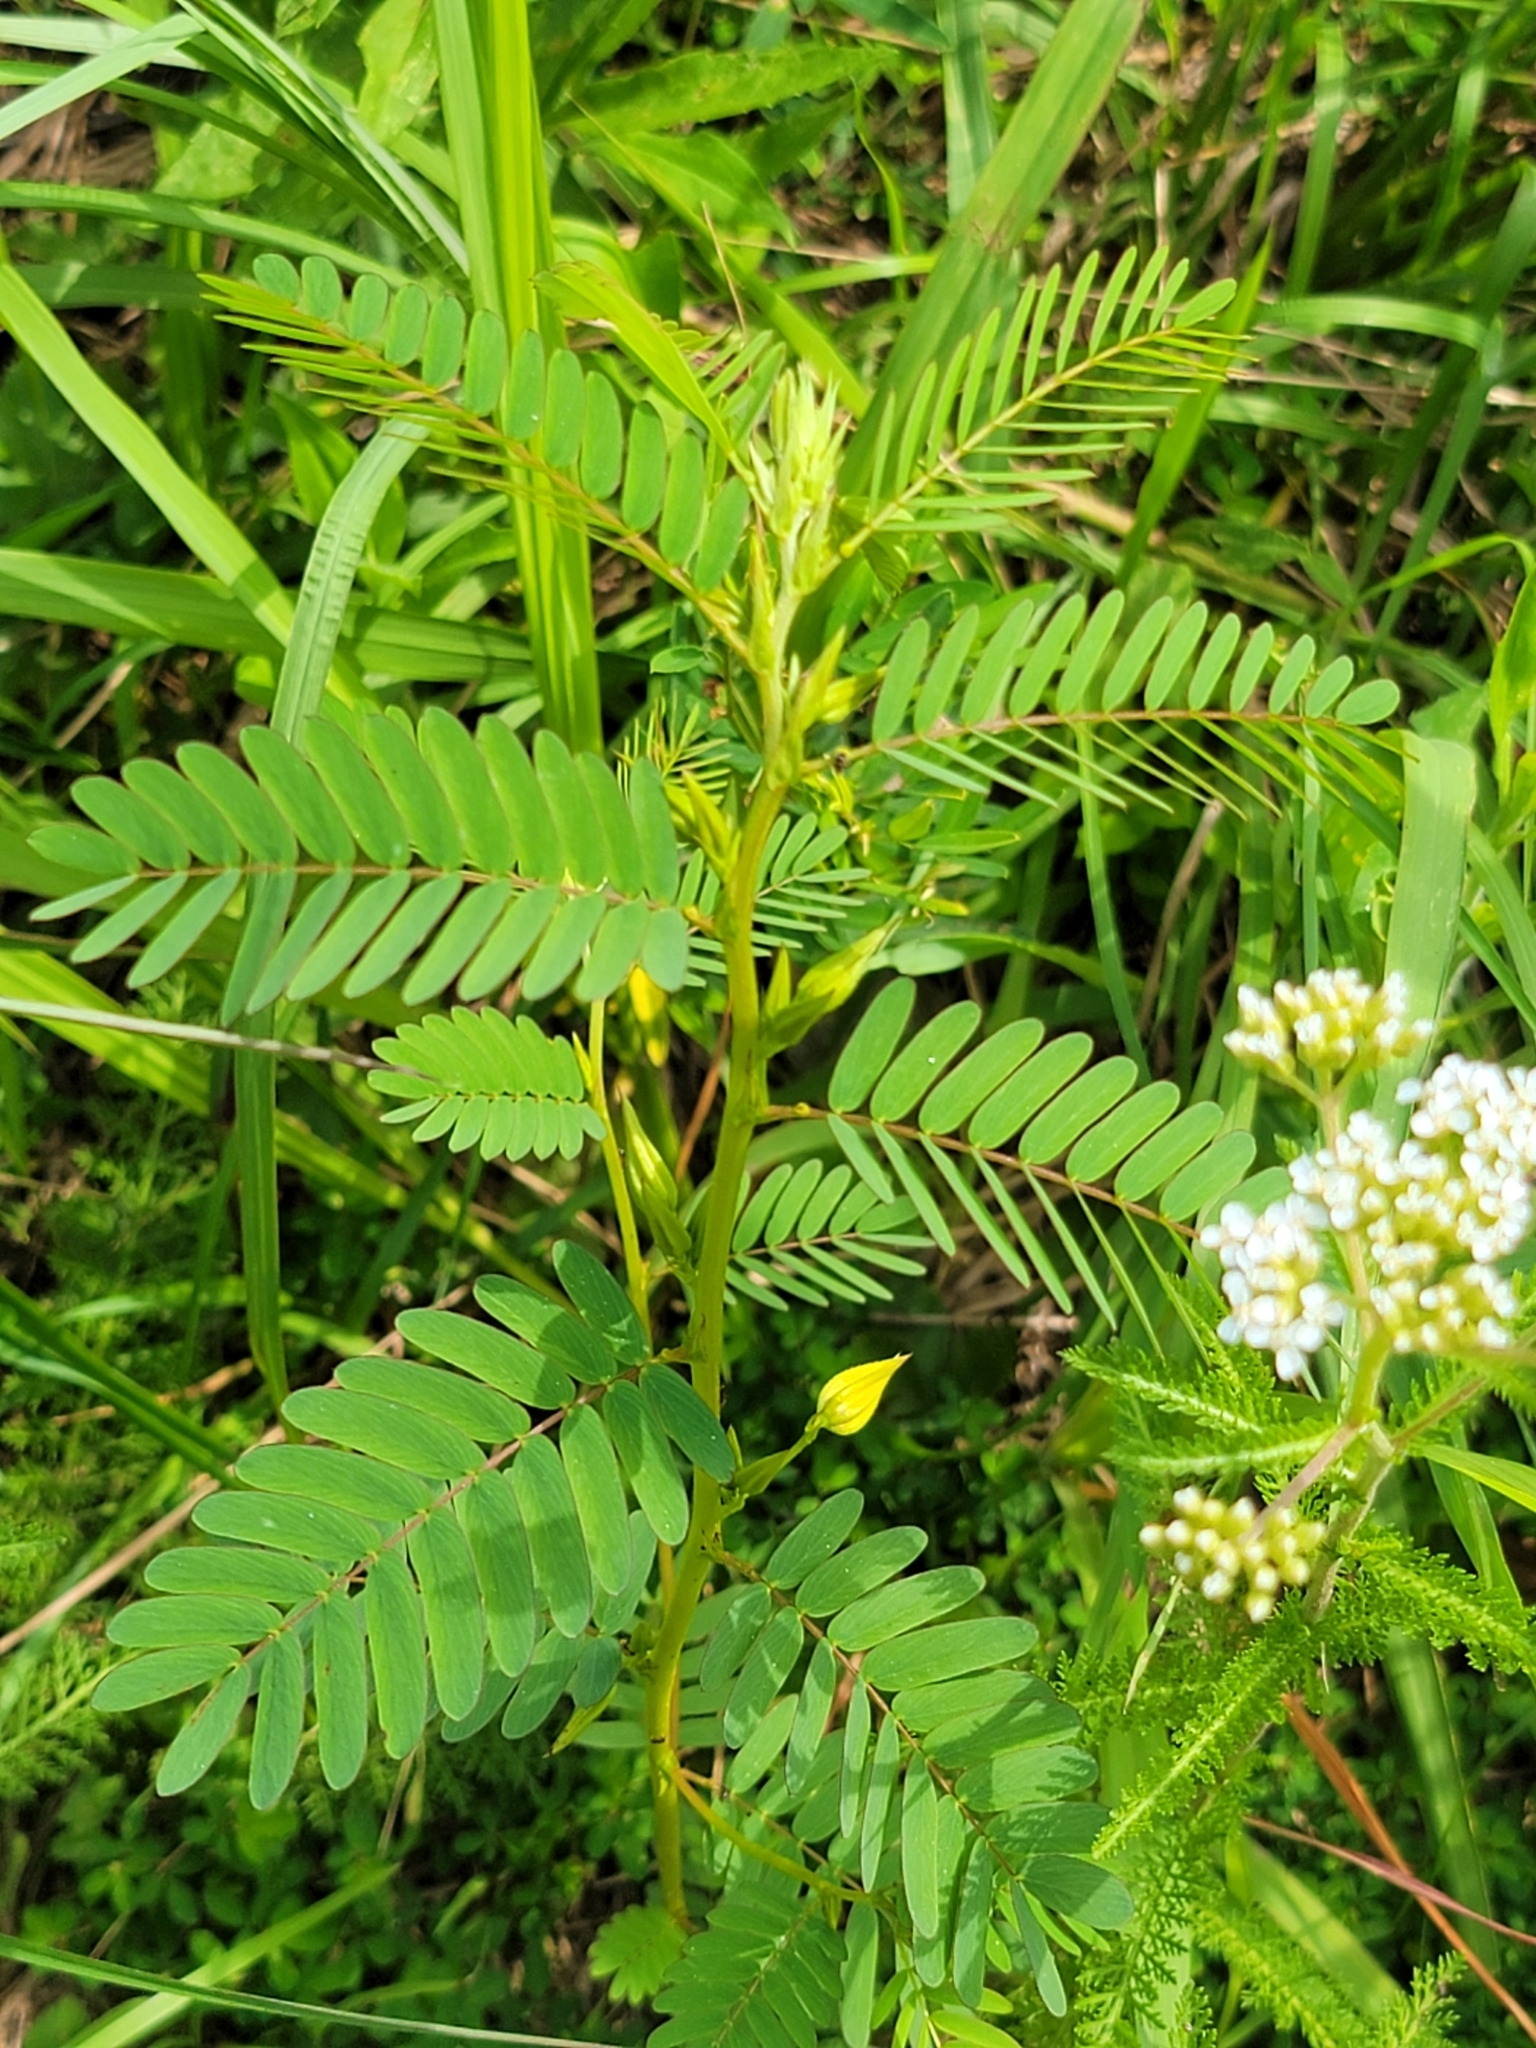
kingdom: Plantae
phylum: Tracheophyta
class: Magnoliopsida
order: Fabales
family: Fabaceae
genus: Chamaecrista
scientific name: Chamaecrista fasciculata
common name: Golden cassia
